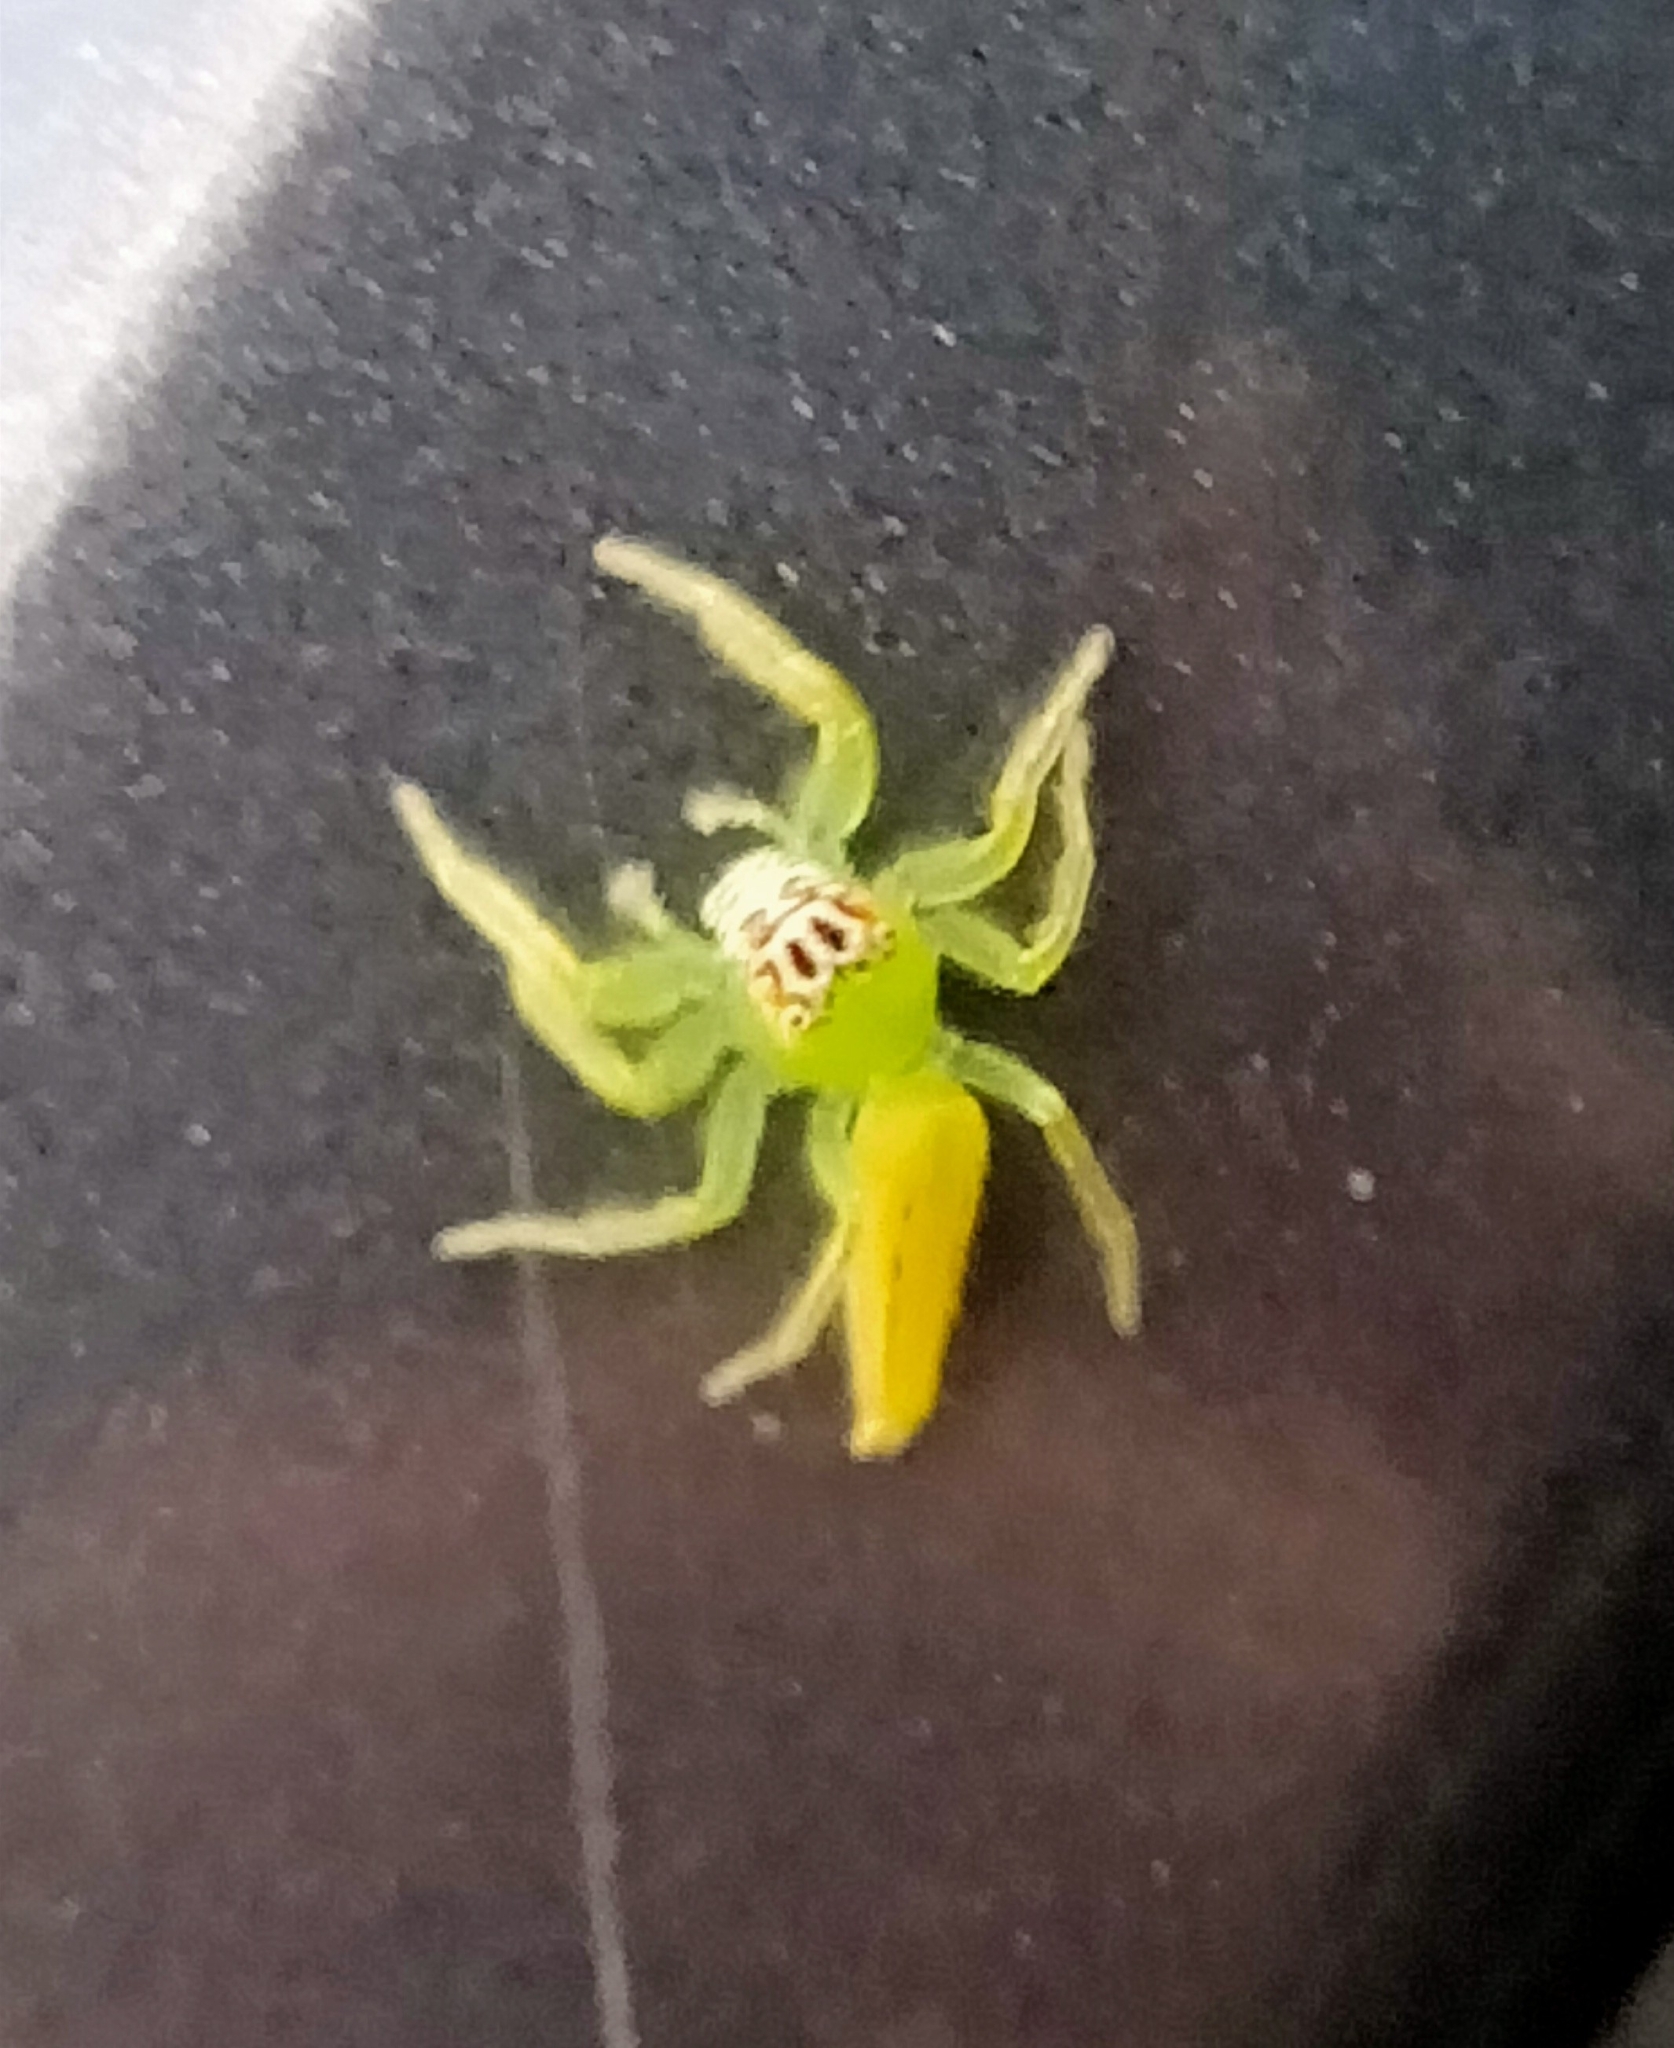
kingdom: Animalia
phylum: Arthropoda
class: Arachnida
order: Araneae
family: Salticidae
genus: Mopsus
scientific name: Mopsus mormon
